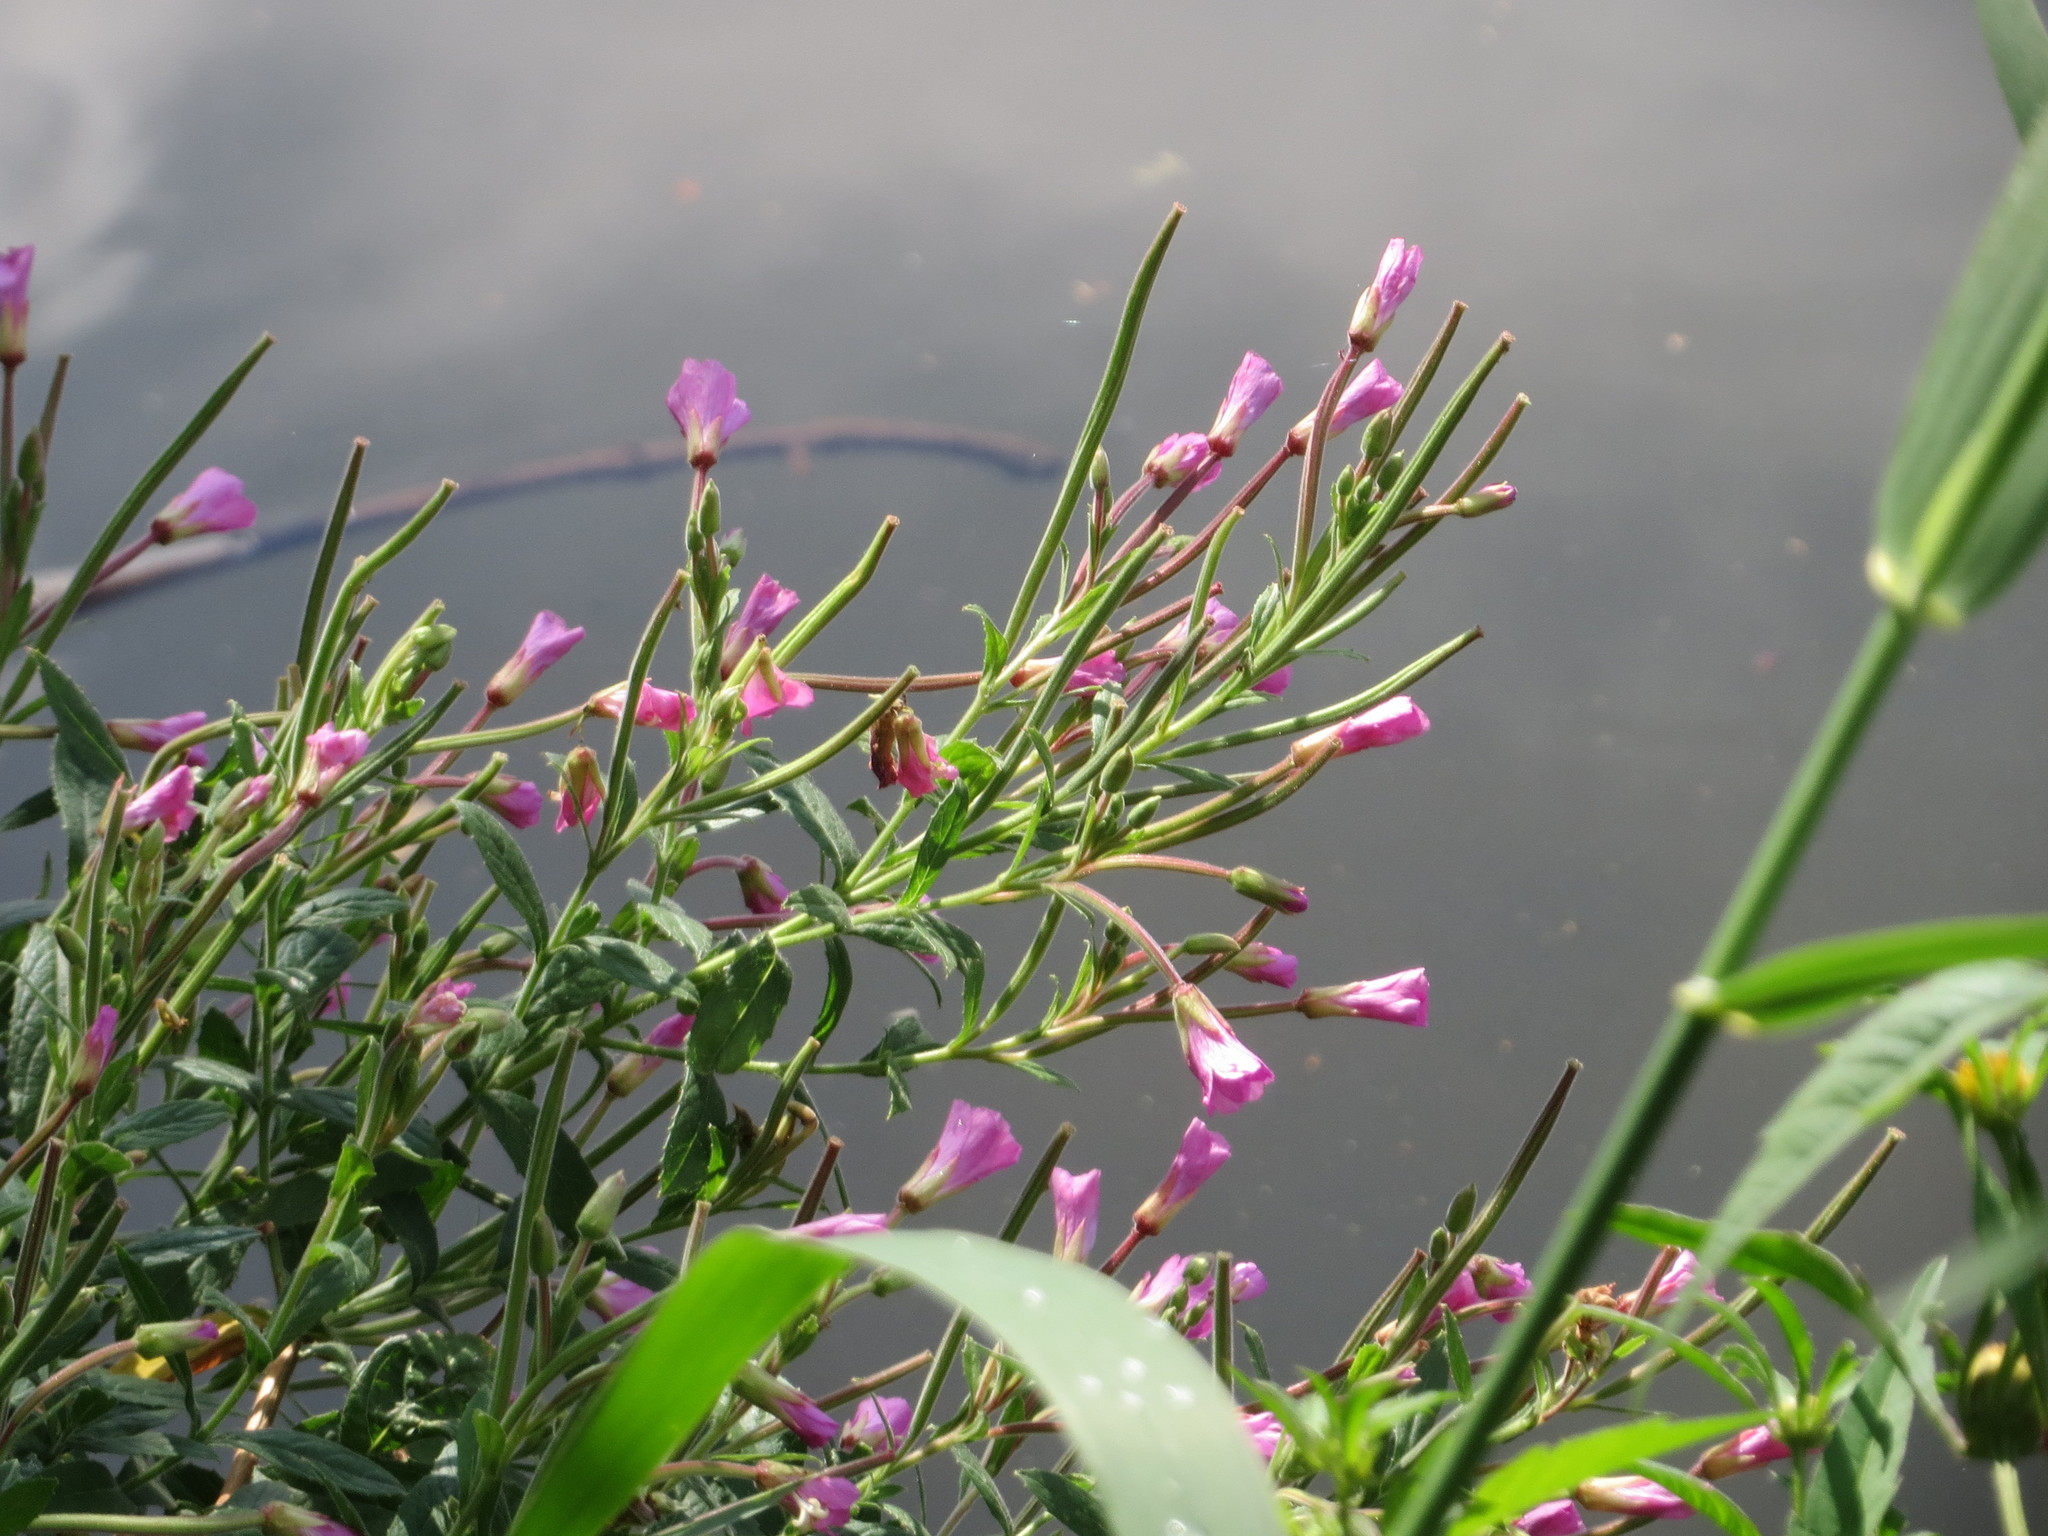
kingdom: Plantae
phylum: Tracheophyta
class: Magnoliopsida
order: Myrtales
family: Onagraceae
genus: Epilobium
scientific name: Epilobium hirsutum
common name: Great willowherb
